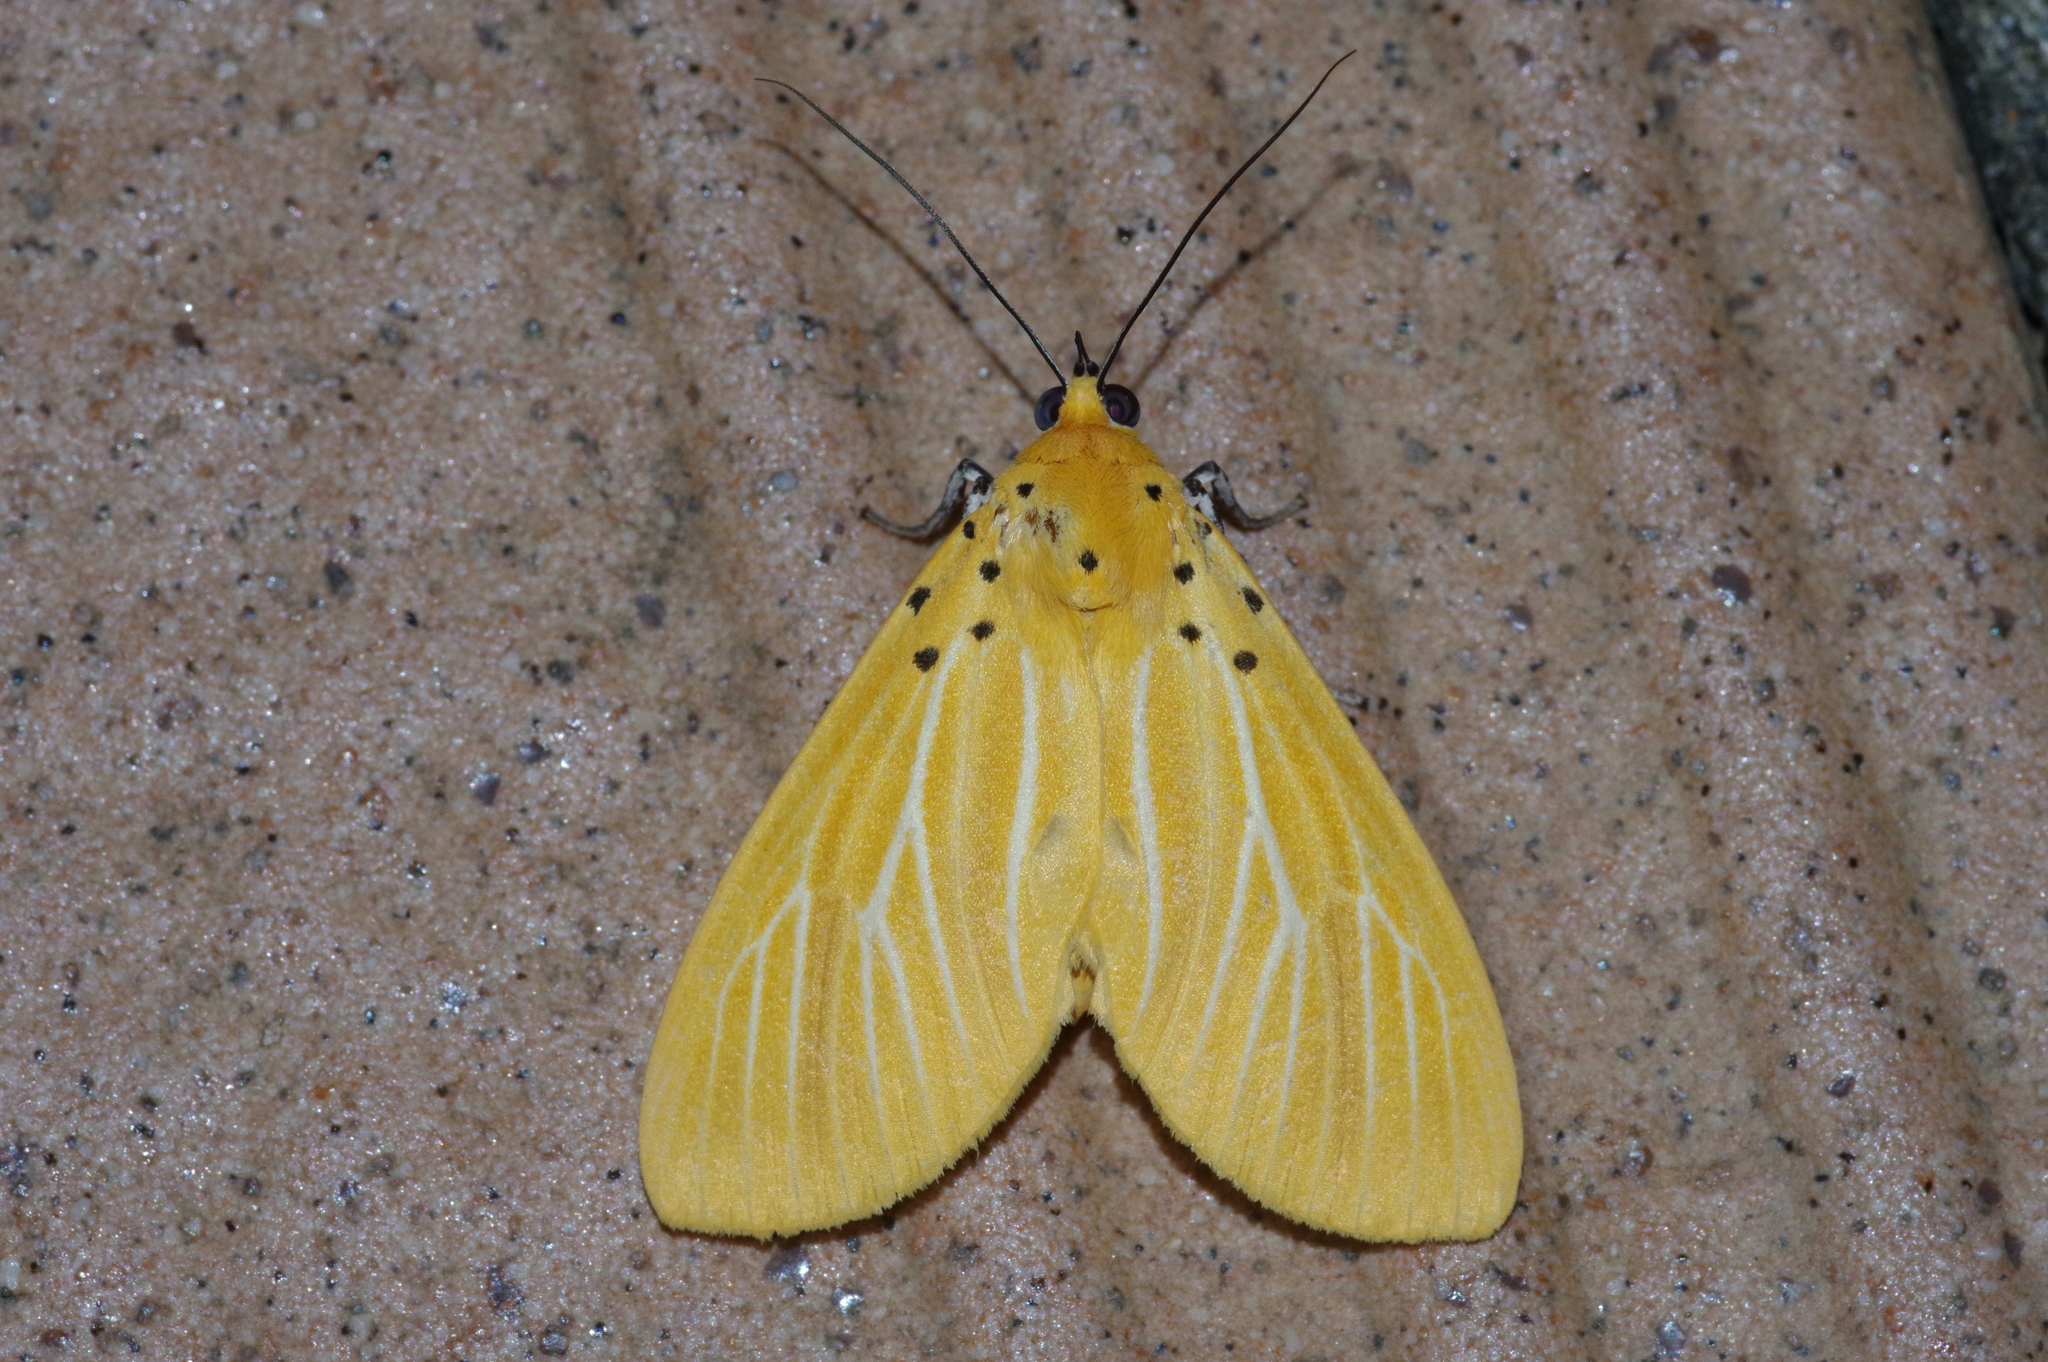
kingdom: Animalia
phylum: Arthropoda
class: Insecta
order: Lepidoptera
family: Erebidae
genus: Asota
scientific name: Asota egens
